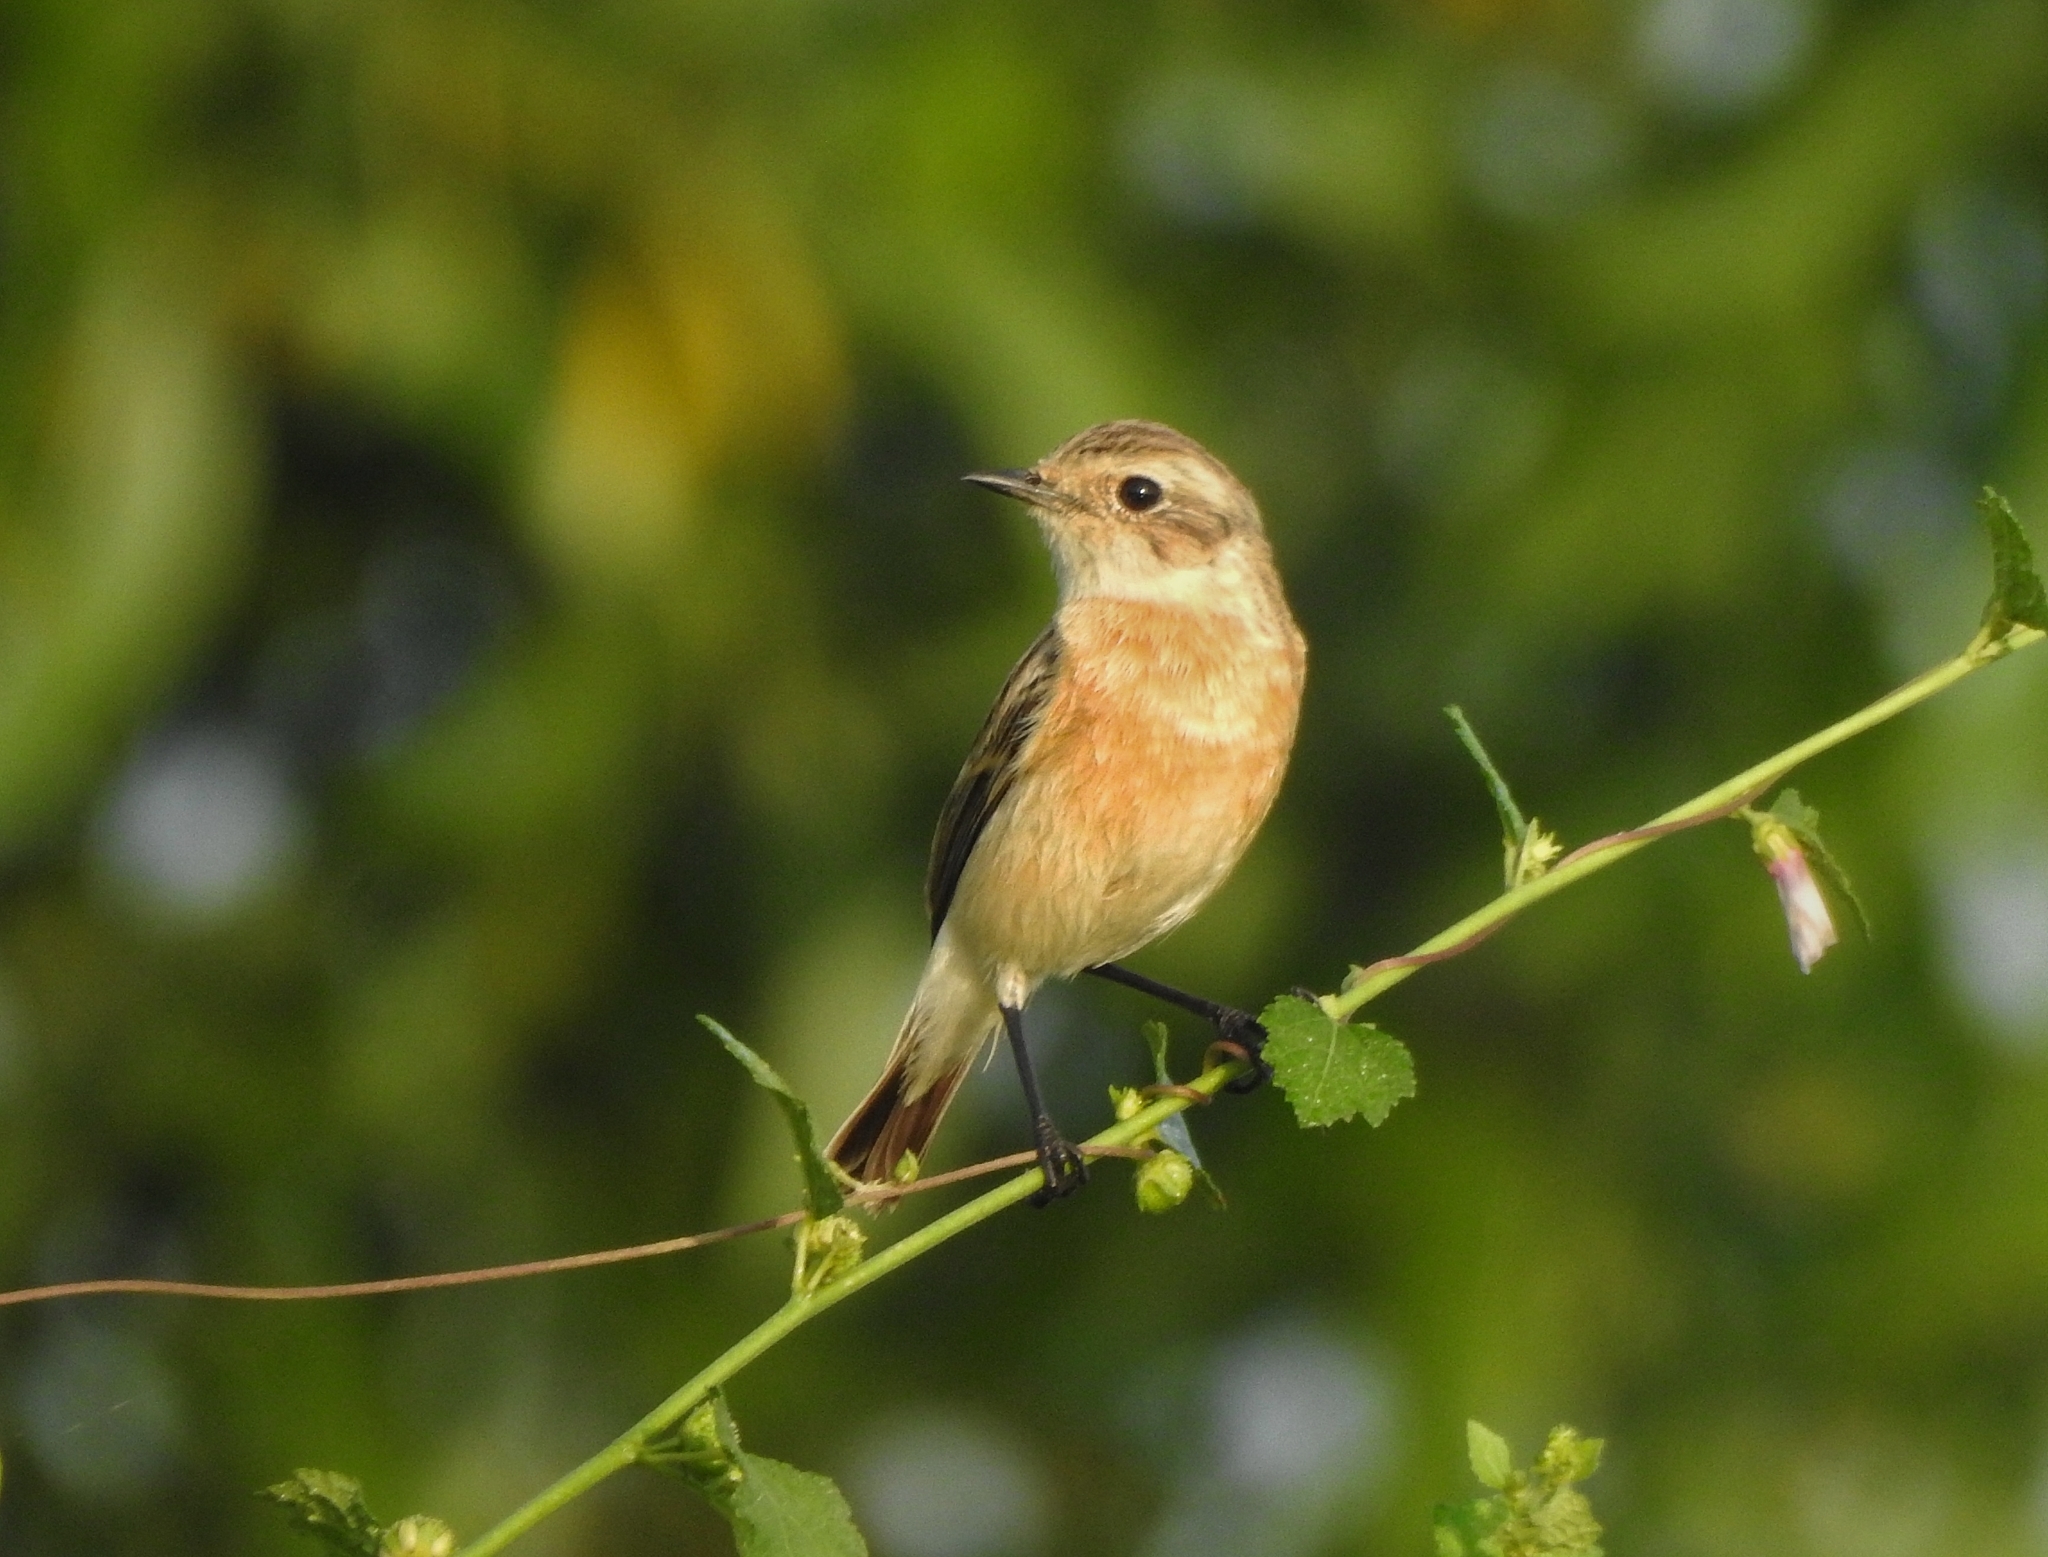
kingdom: Animalia
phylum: Chordata
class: Aves
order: Passeriformes
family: Muscicapidae
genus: Saxicola
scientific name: Saxicola maurus
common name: Siberian stonechat
